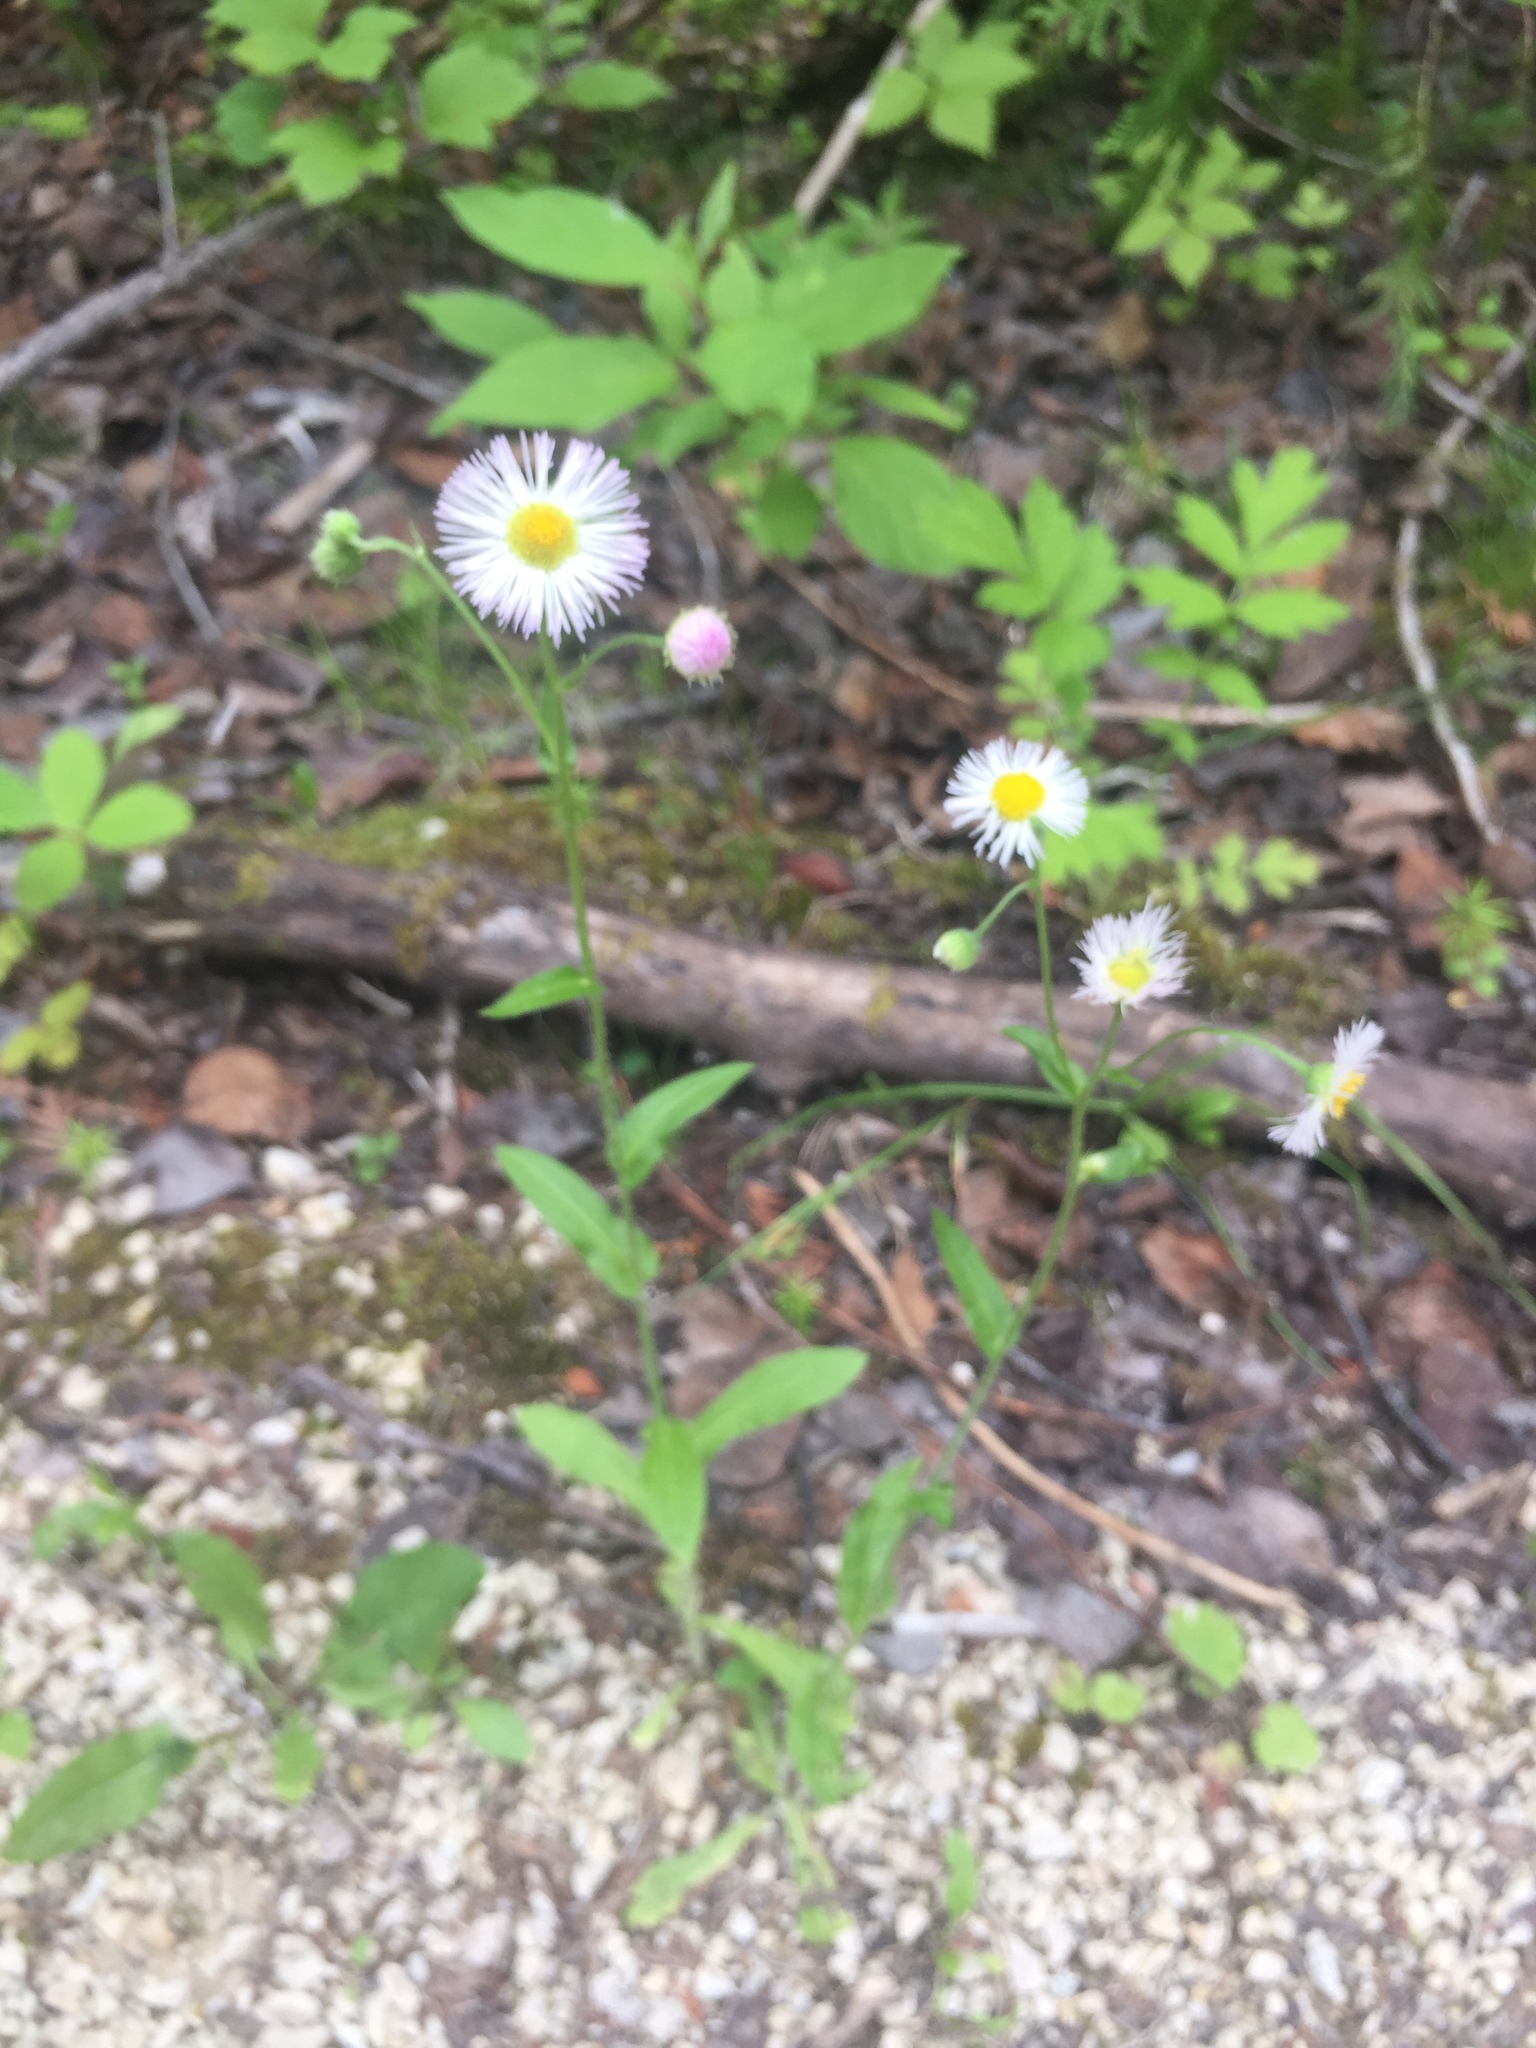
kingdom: Plantae
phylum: Tracheophyta
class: Magnoliopsida
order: Asterales
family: Asteraceae
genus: Erigeron
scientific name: Erigeron philadelphicus
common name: Robin's-plantain
